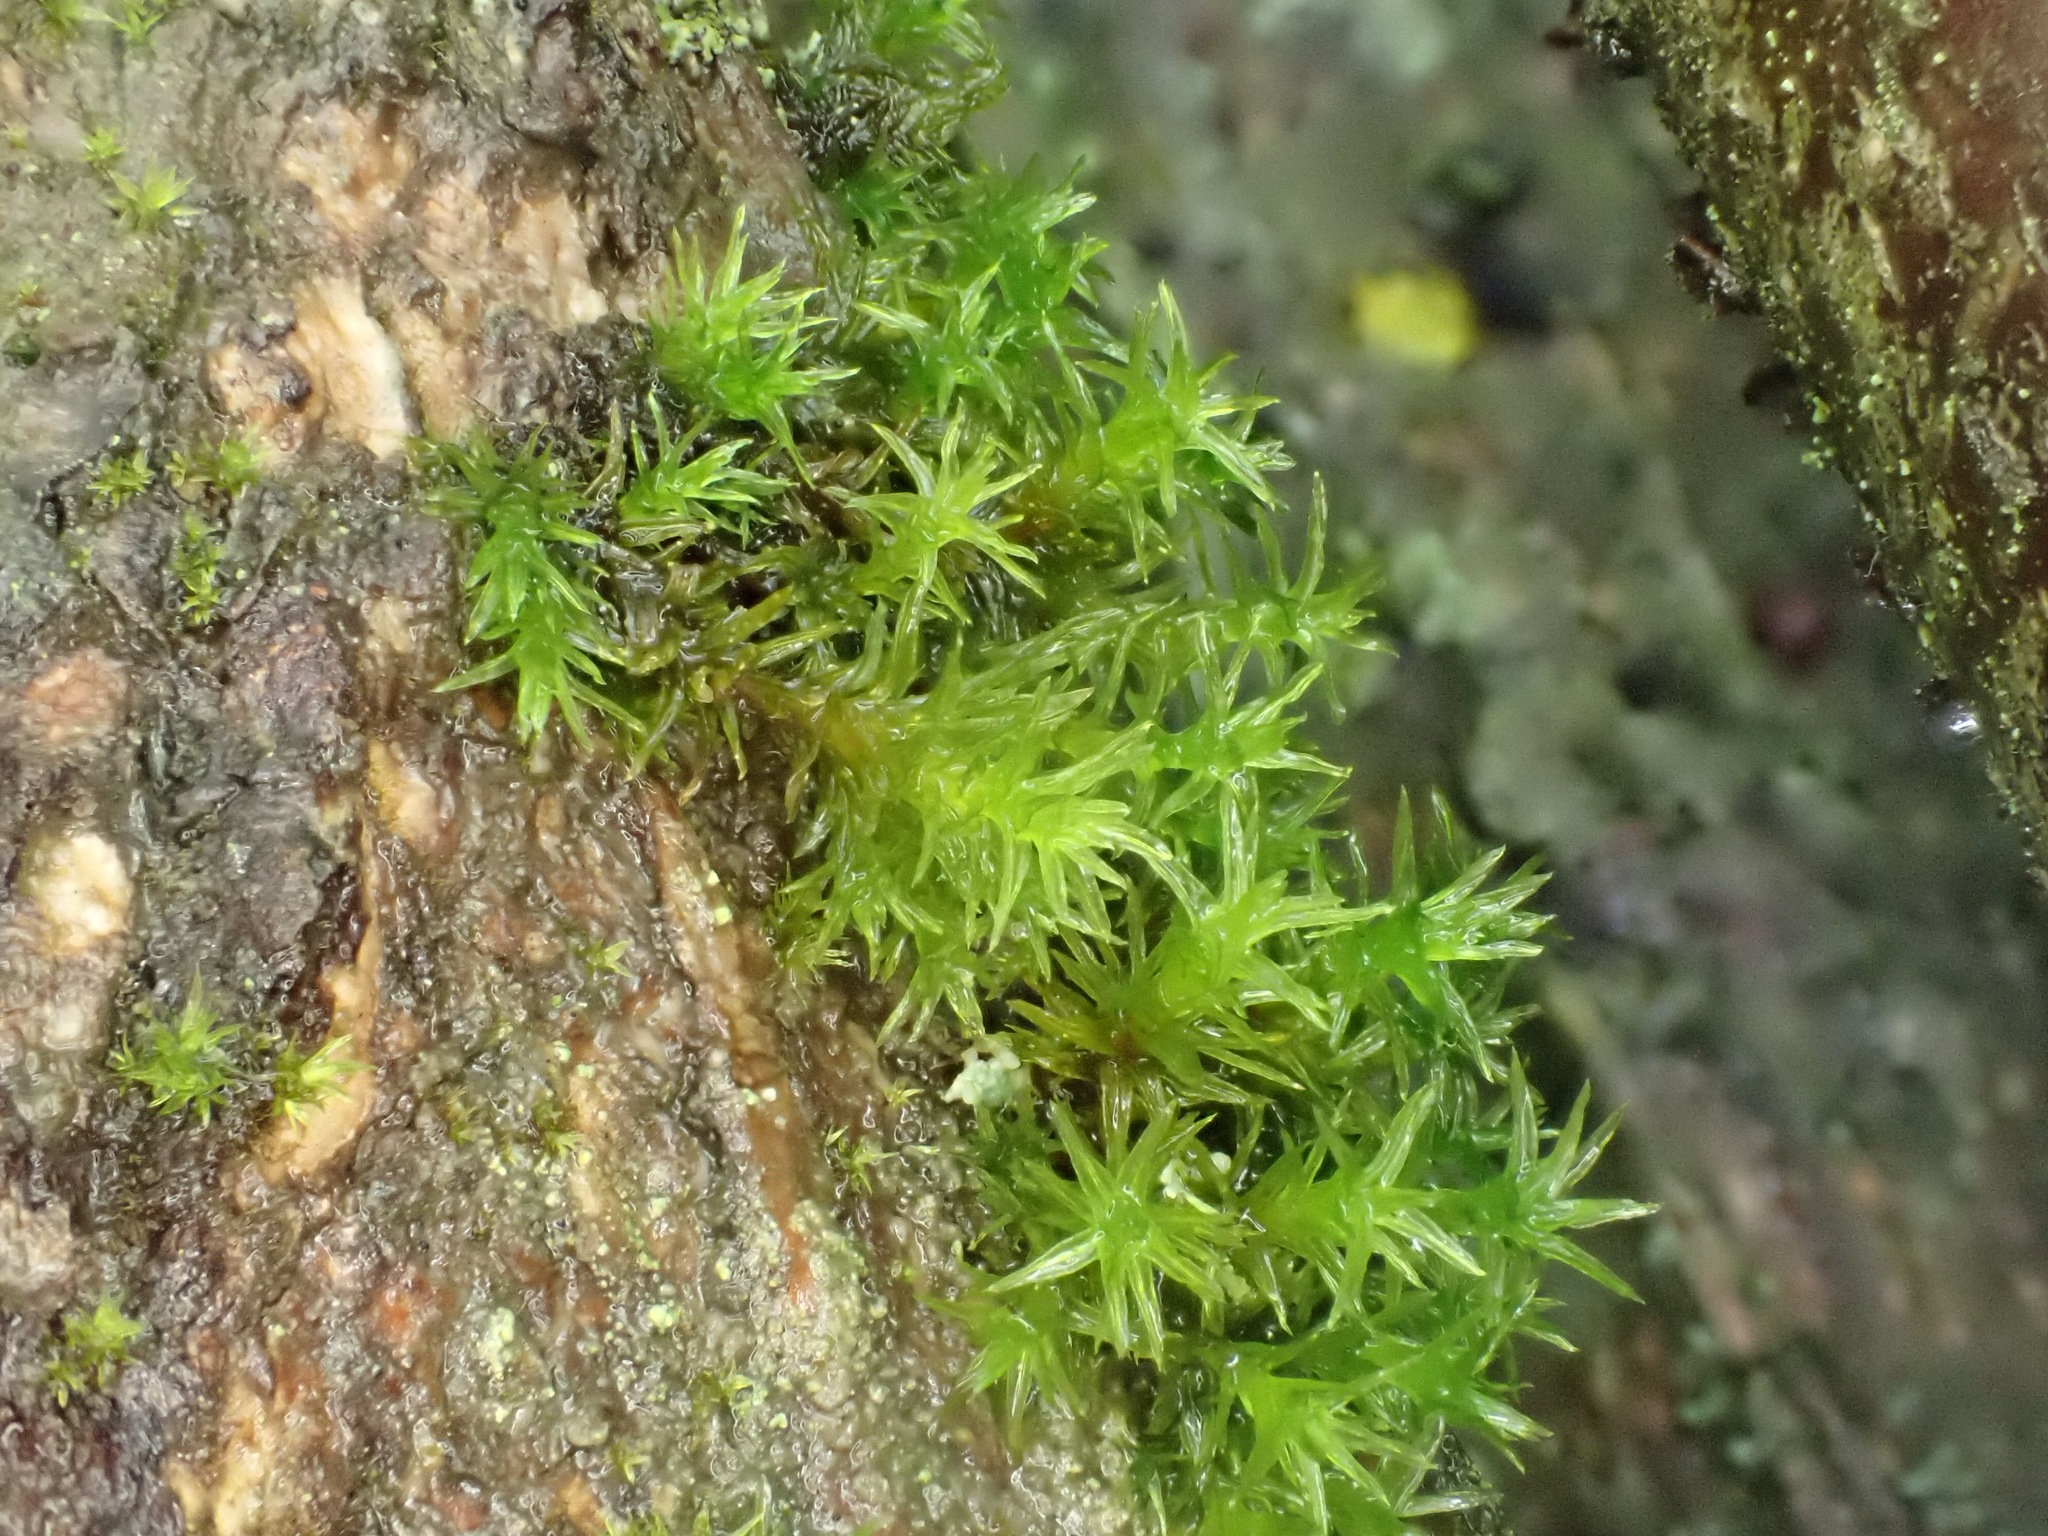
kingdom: Plantae
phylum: Bryophyta
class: Bryopsida
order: Orthotrichales
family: Orthotrichaceae
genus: Lewinskya
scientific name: Lewinskya affinis
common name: Wood bristle-moss
